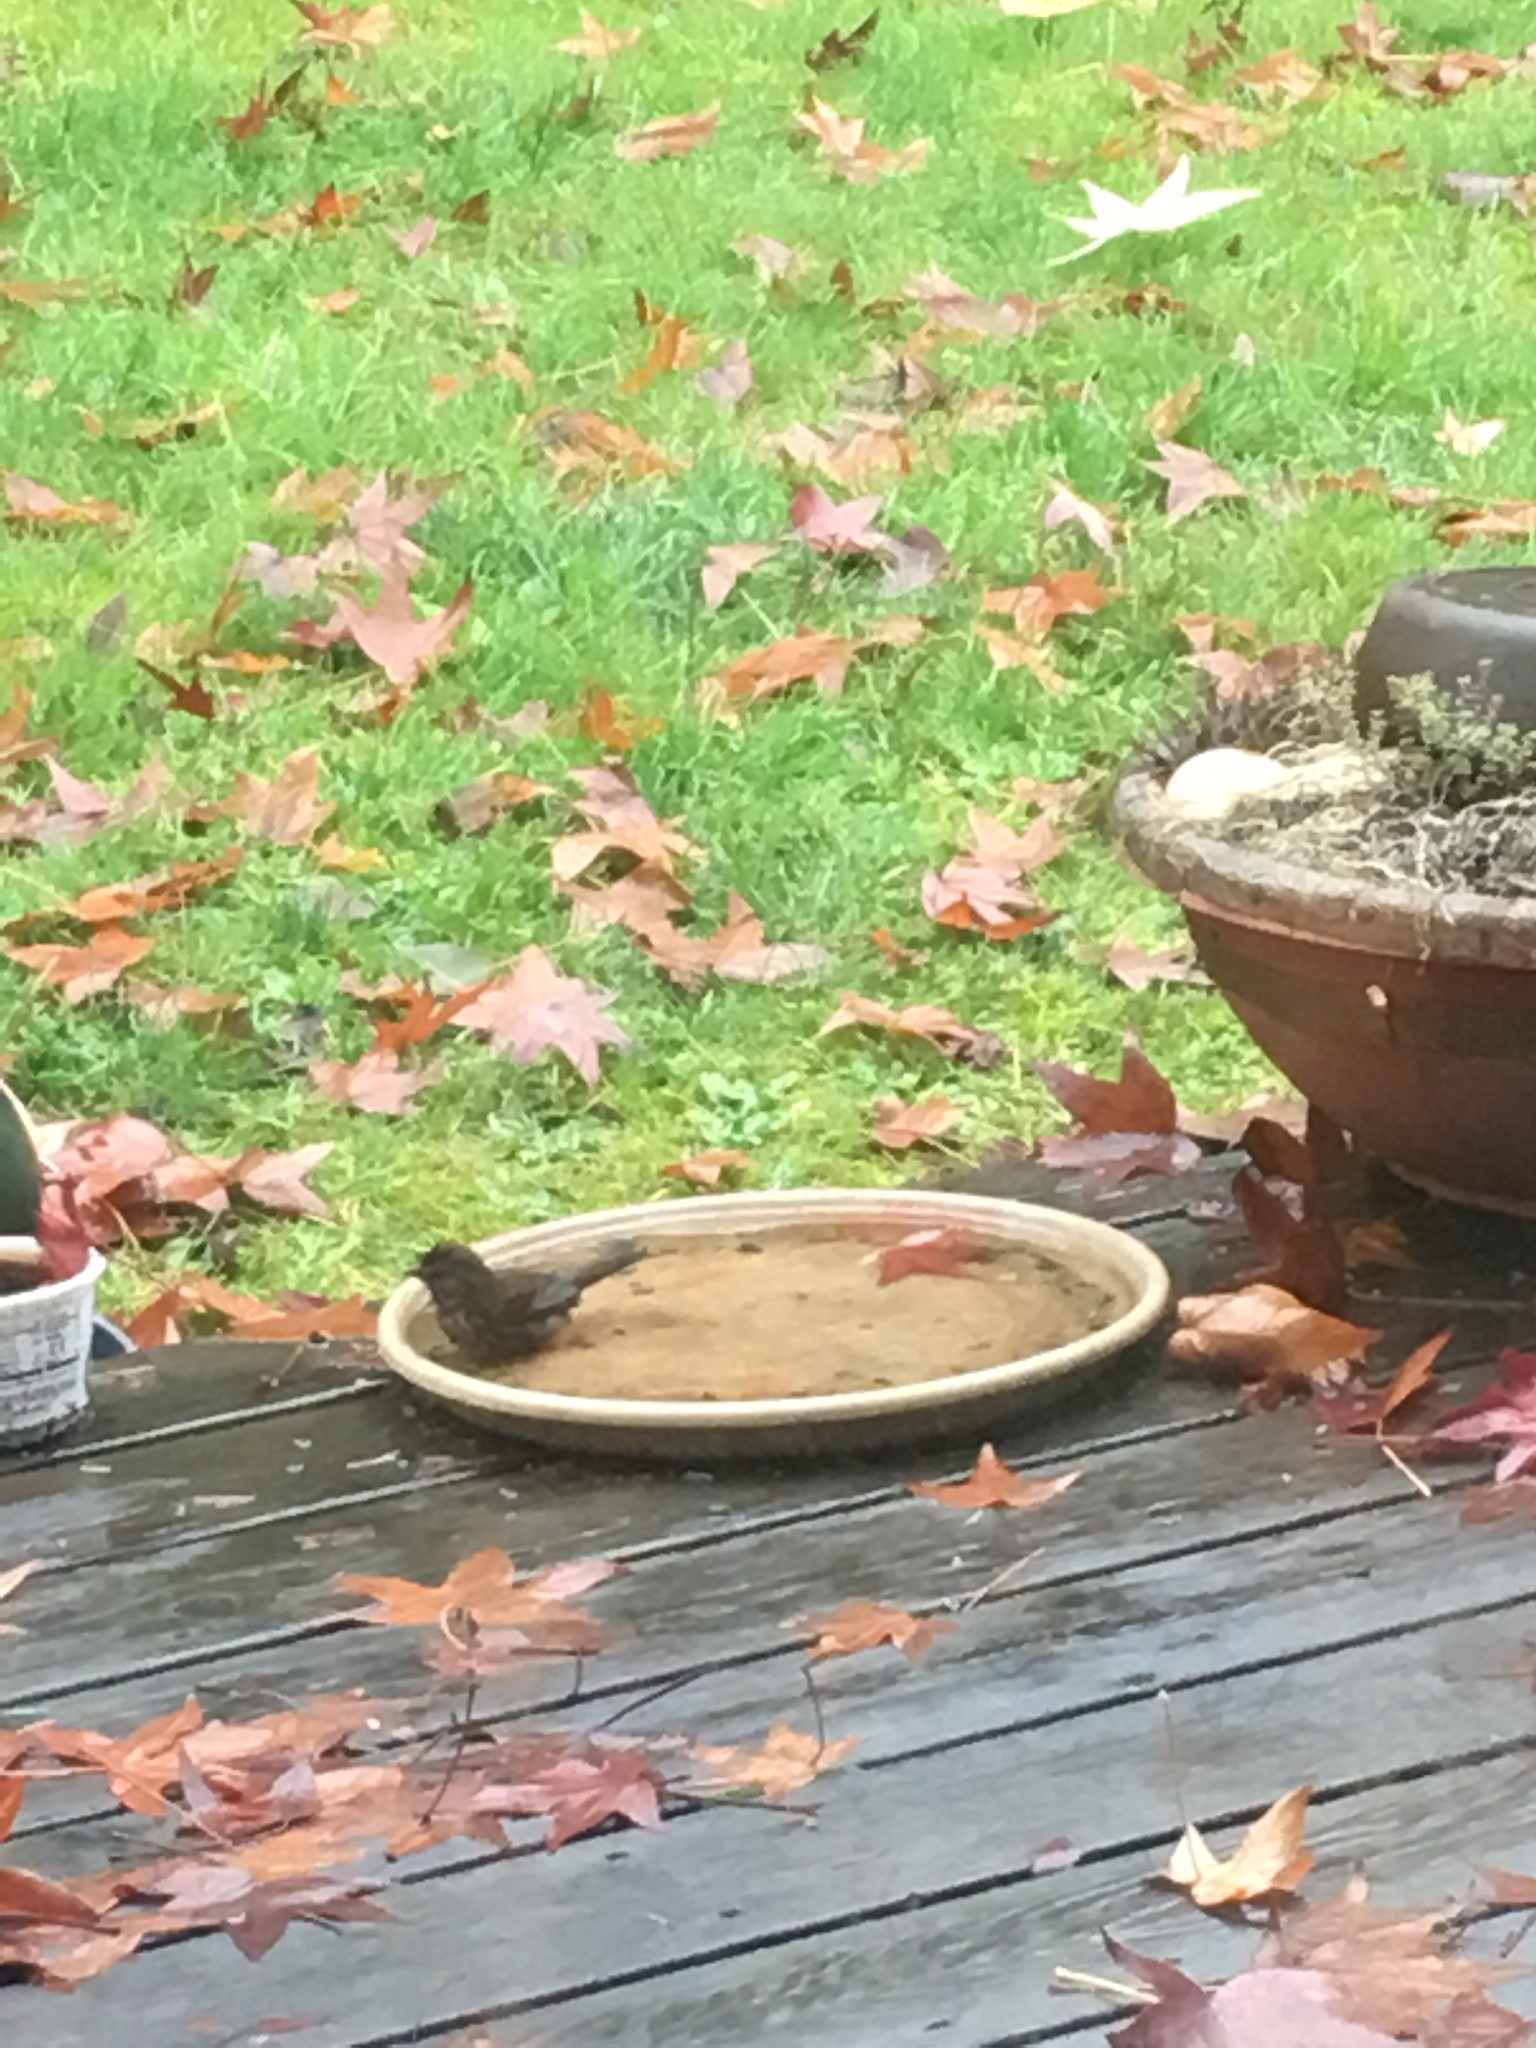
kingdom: Animalia
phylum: Chordata
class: Aves
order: Passeriformes
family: Passerellidae
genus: Melospiza
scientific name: Melospiza melodia
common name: Song sparrow
